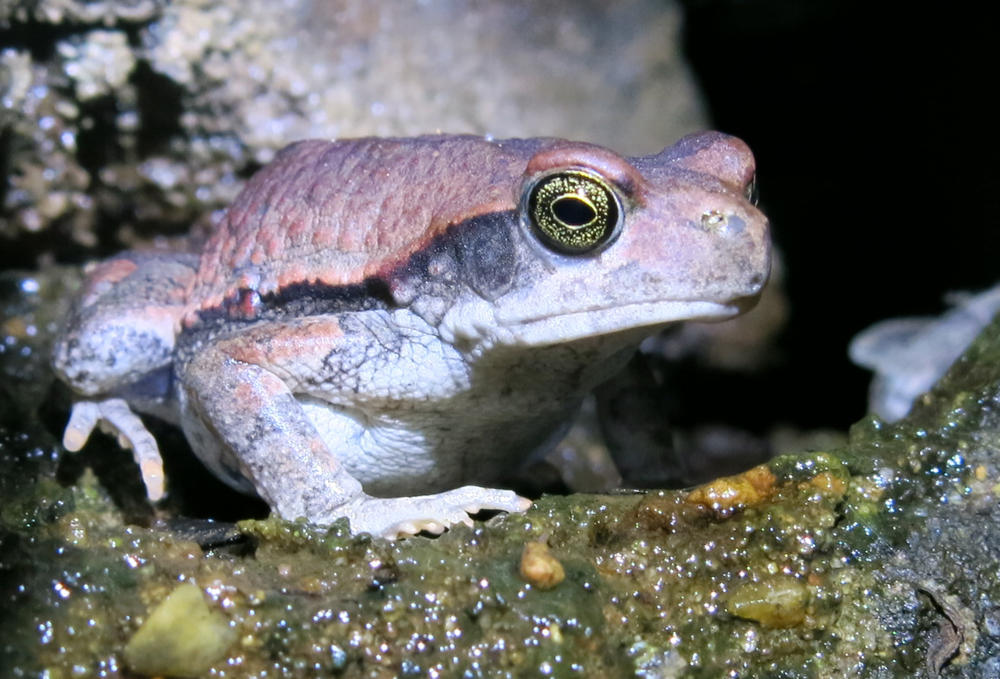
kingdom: Animalia
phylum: Chordata
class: Amphibia
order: Anura
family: Bufonidae
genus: Schismaderma
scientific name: Schismaderma carens
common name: African split-skin toad
